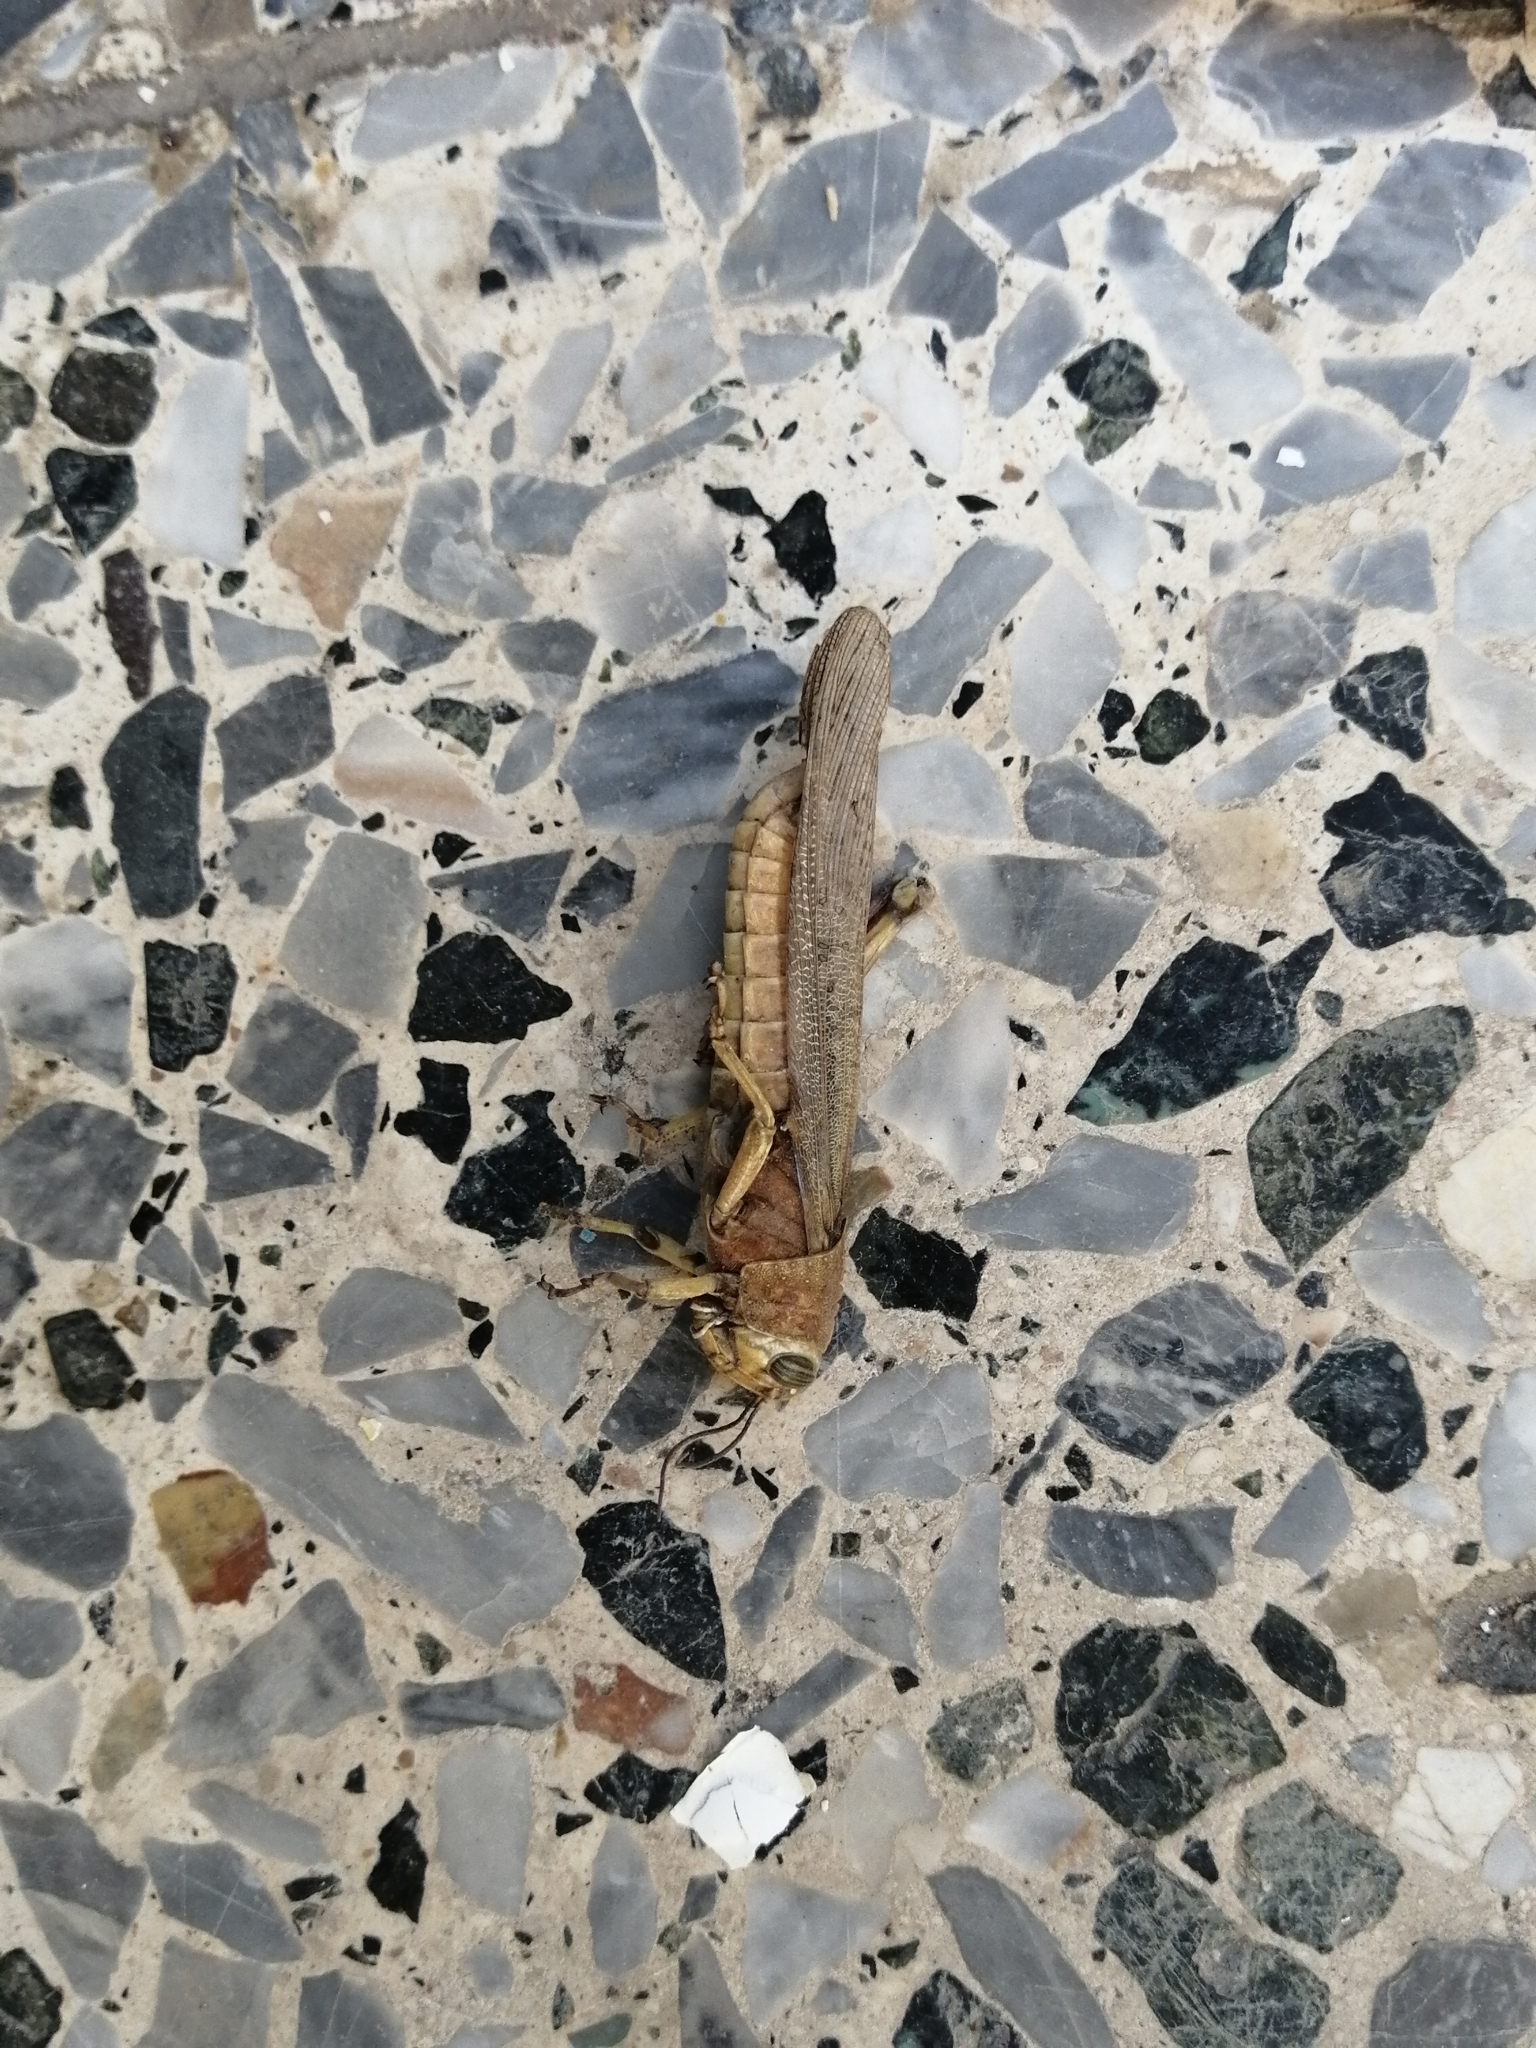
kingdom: Animalia
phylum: Arthropoda
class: Insecta
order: Orthoptera
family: Acrididae
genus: Anacridium
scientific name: Anacridium aegyptium
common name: Egyptian grasshopper
